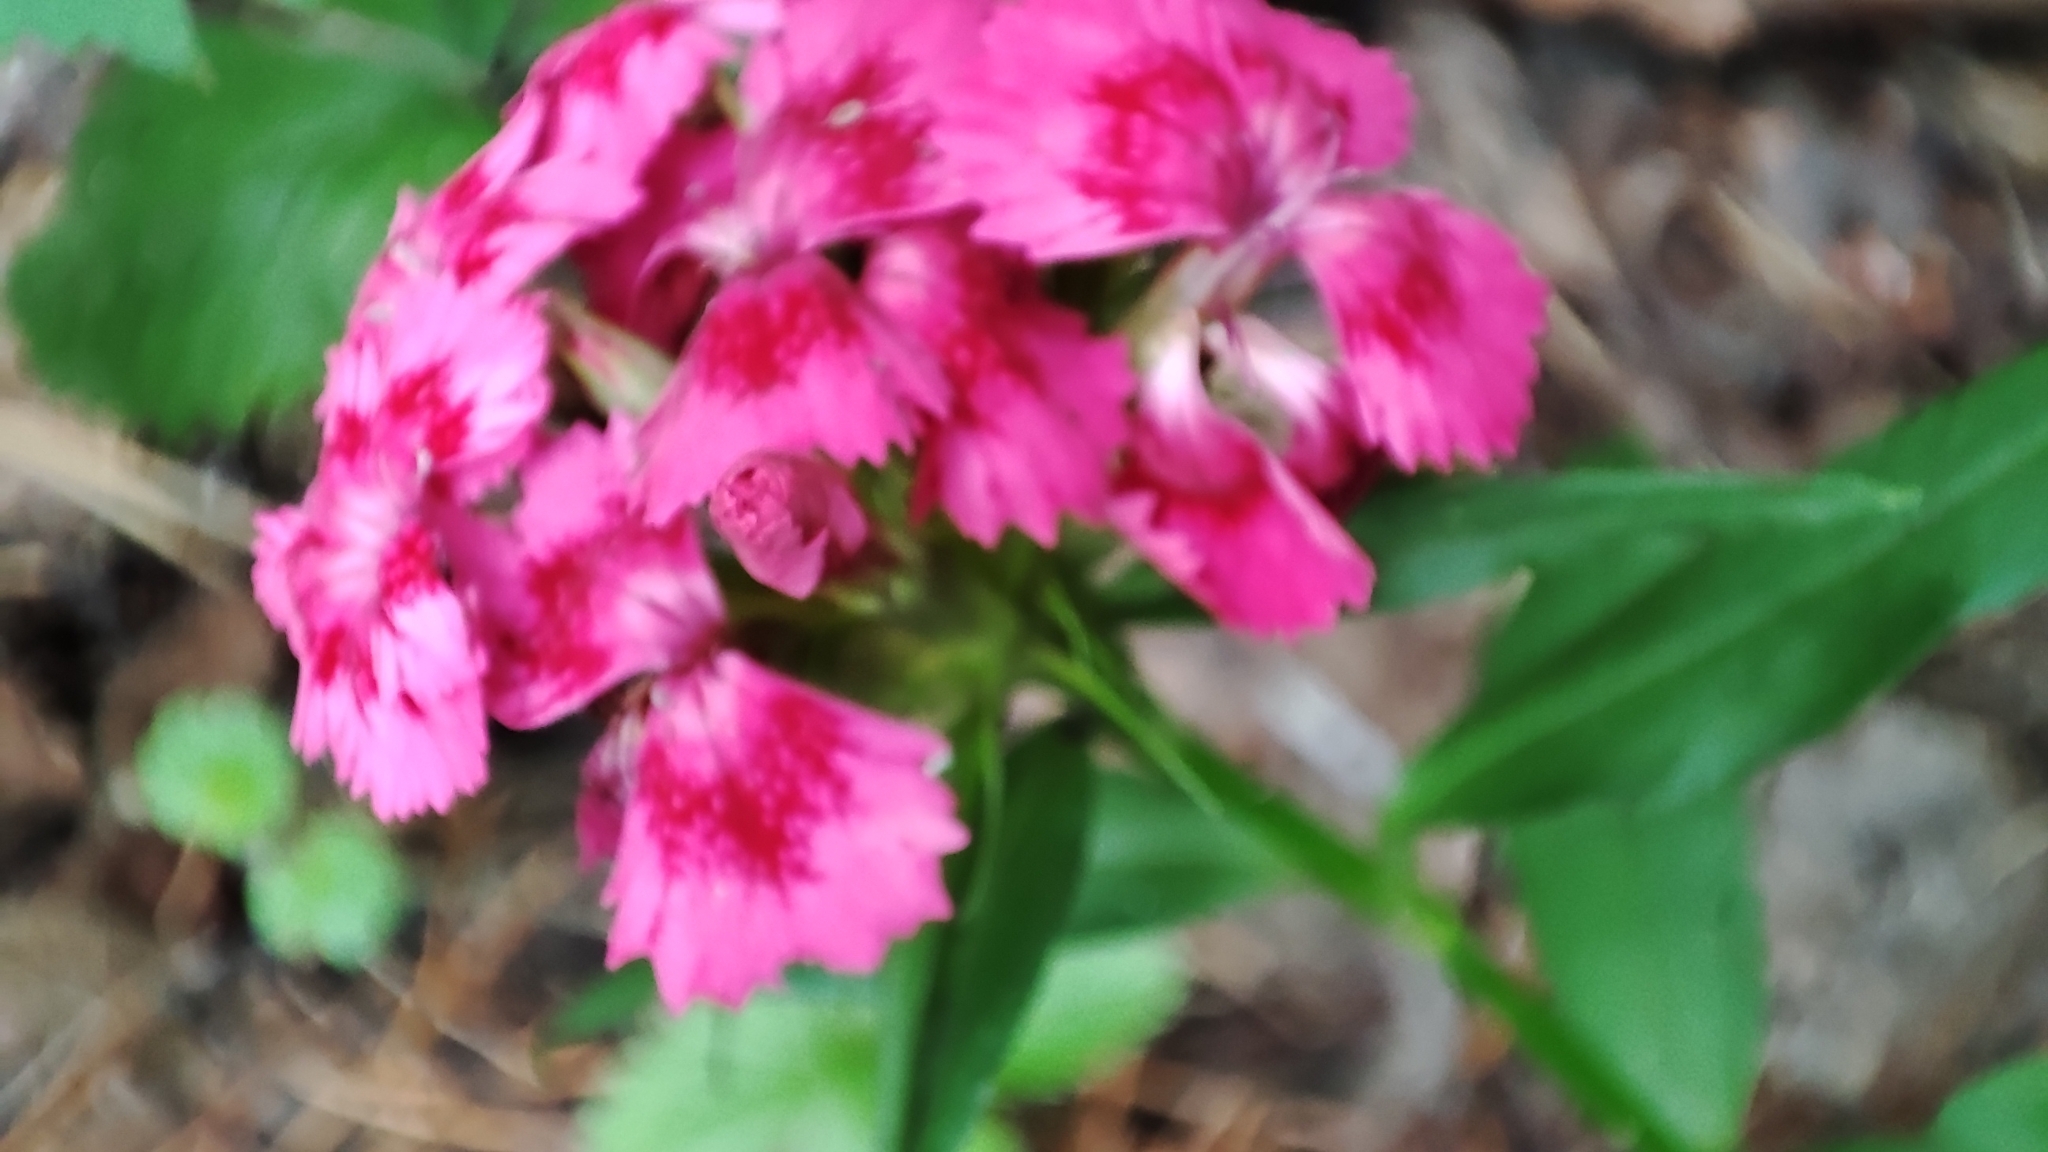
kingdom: Plantae
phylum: Tracheophyta
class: Magnoliopsida
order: Caryophyllales
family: Caryophyllaceae
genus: Dianthus
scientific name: Dianthus barbatus
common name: Sweet-william
